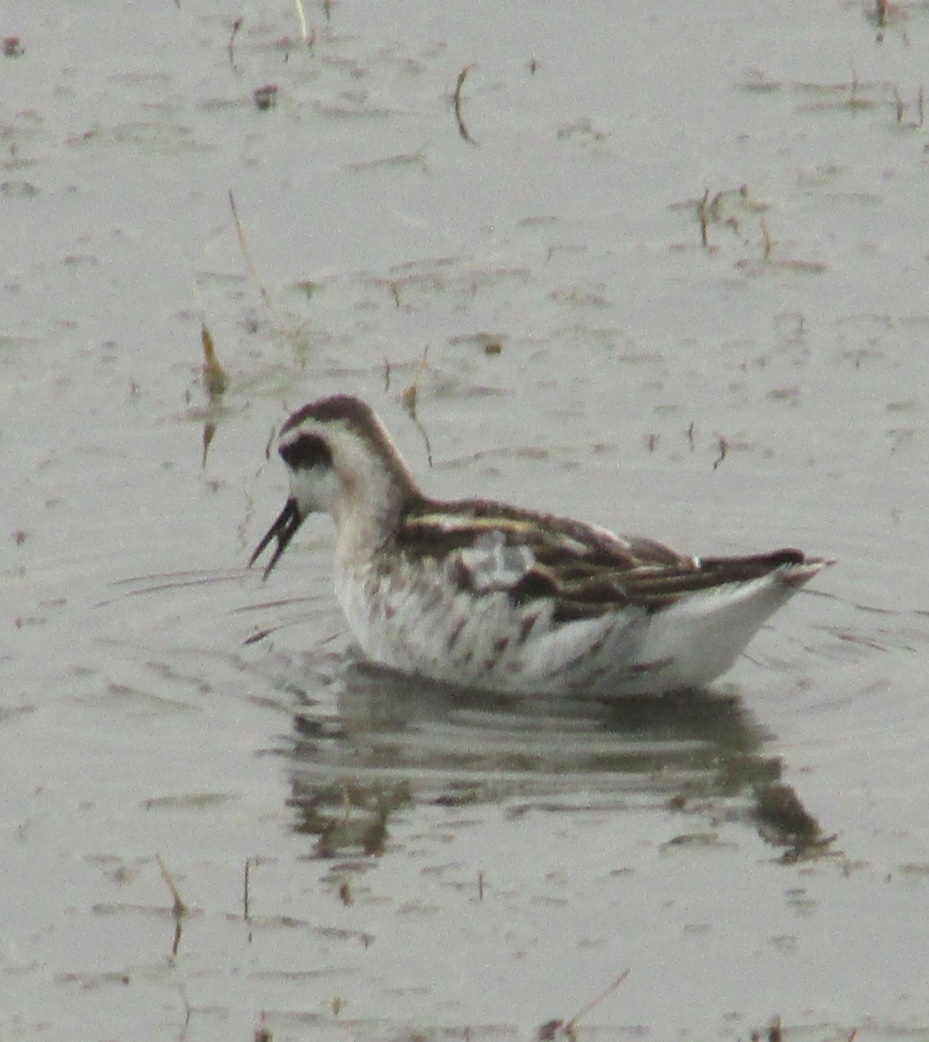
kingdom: Animalia
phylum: Chordata
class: Aves
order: Charadriiformes
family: Scolopacidae
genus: Phalaropus
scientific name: Phalaropus lobatus
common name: Red-necked phalarope
